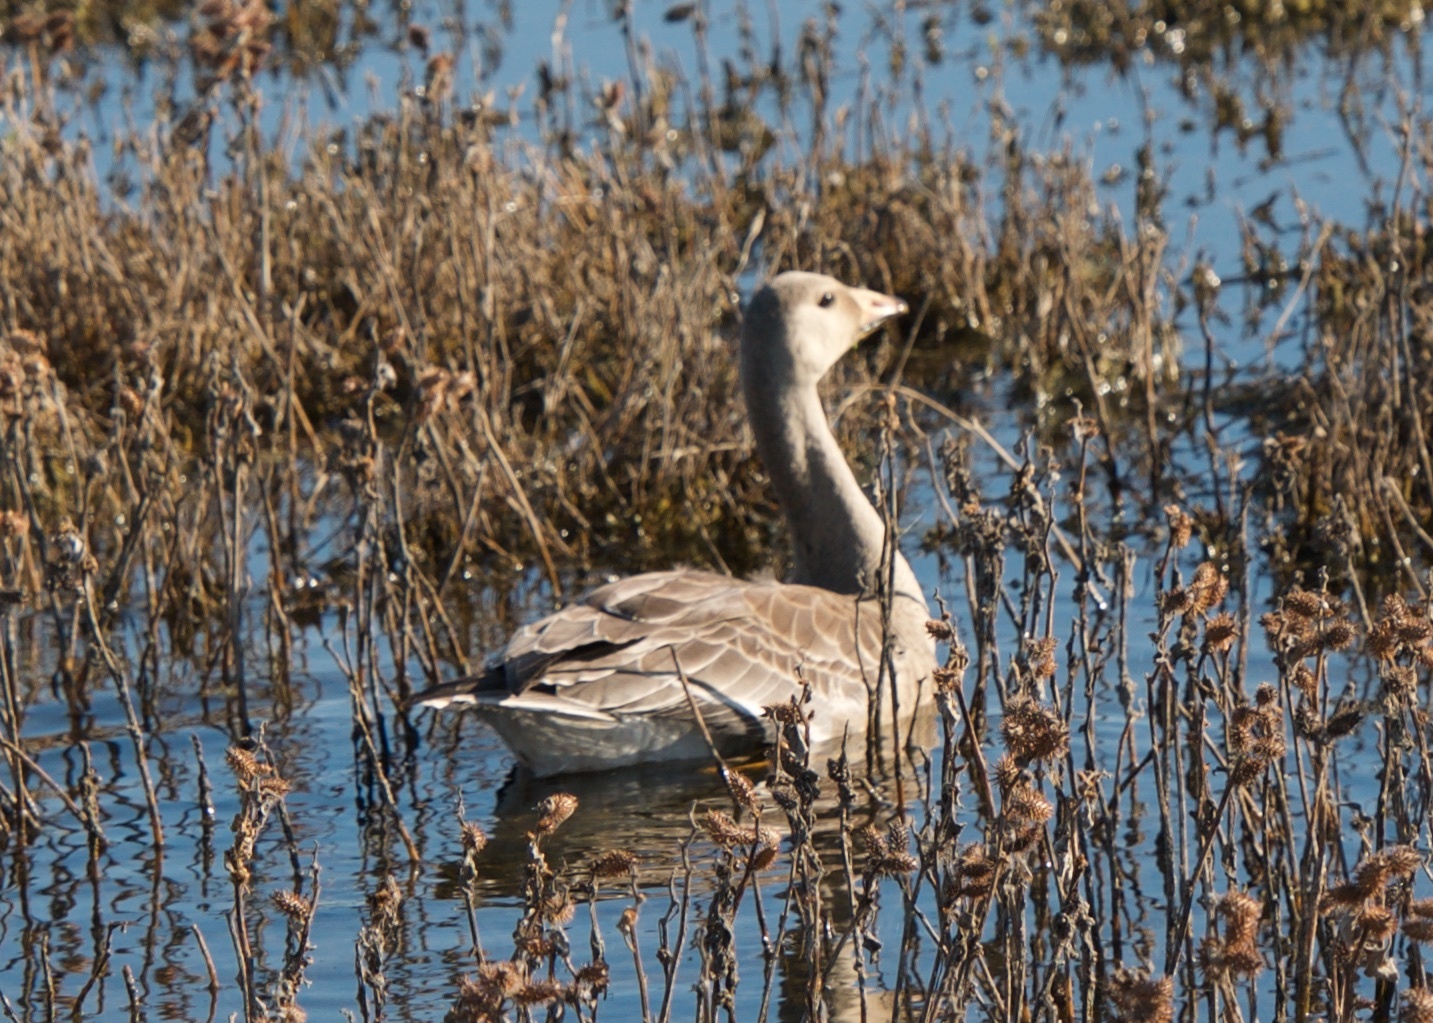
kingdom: Animalia
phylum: Chordata
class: Aves
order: Anseriformes
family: Anatidae
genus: Anser
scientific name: Anser albifrons
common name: Greater white-fronted goose
